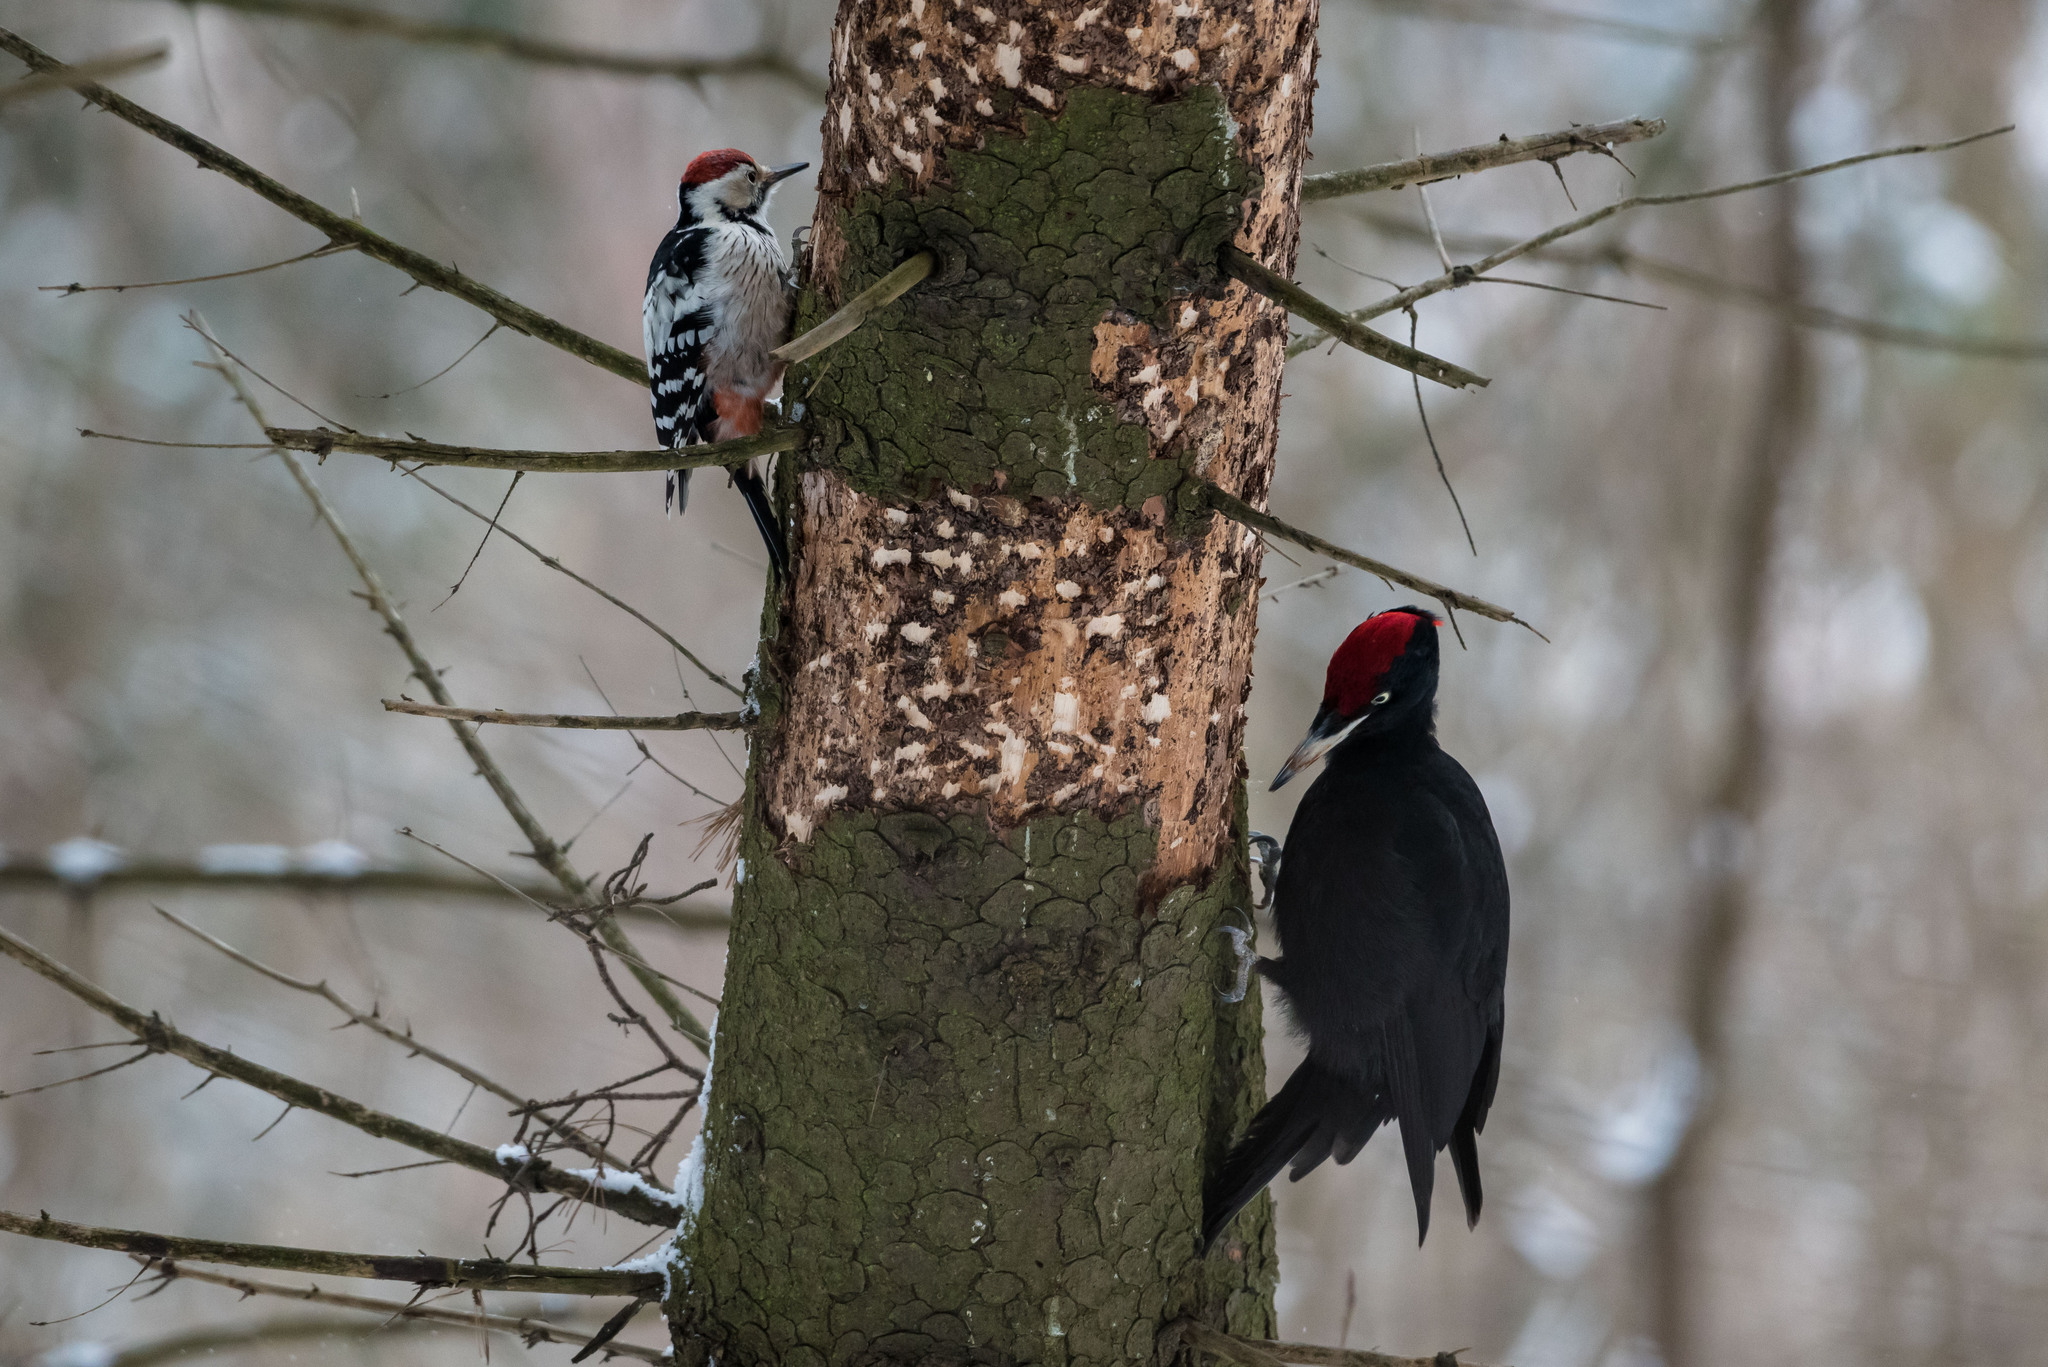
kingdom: Animalia
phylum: Chordata
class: Aves
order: Piciformes
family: Picidae
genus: Dryocopus
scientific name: Dryocopus martius
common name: Black woodpecker
